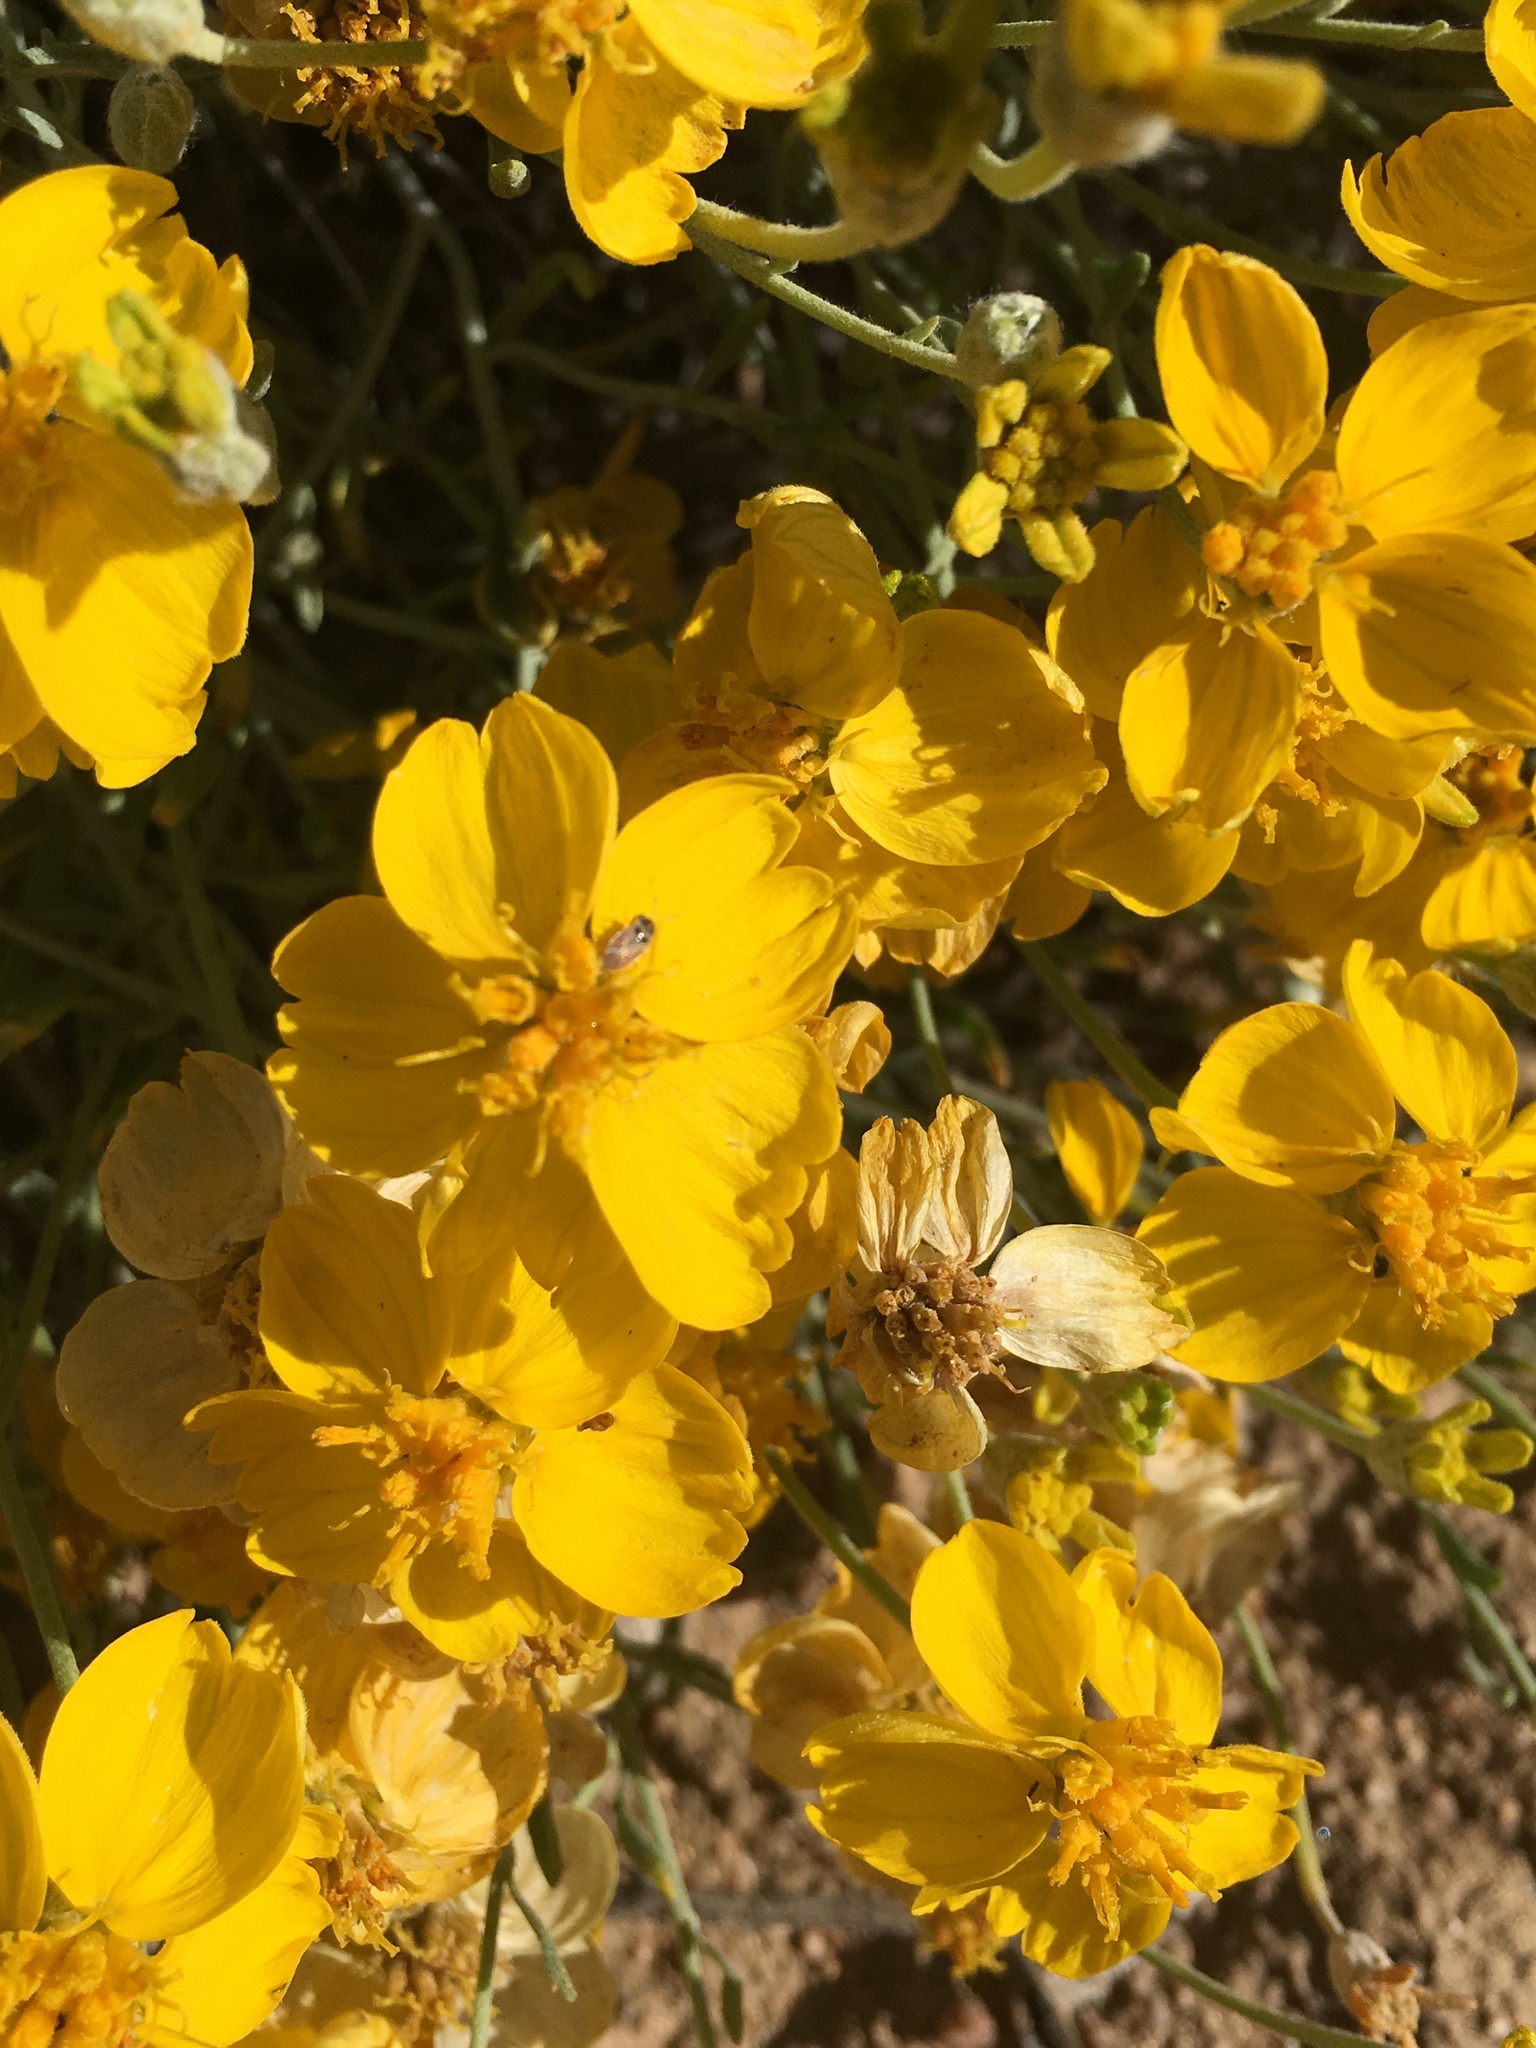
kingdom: Plantae
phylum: Tracheophyta
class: Magnoliopsida
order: Asterales
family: Asteraceae
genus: Psilostrophe
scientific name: Psilostrophe cooperi
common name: White-stem paper-flower
